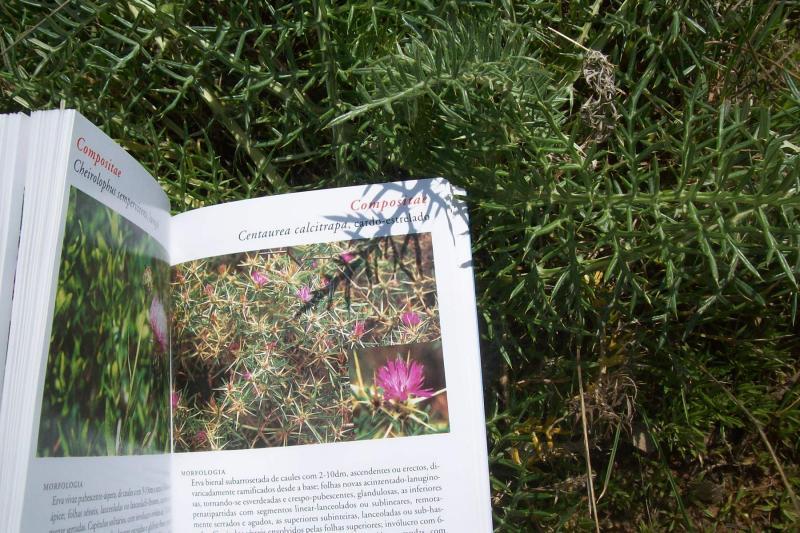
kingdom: Plantae
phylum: Tracheophyta
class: Magnoliopsida
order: Asterales
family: Asteraceae
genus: Cynara
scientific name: Cynara humilis
